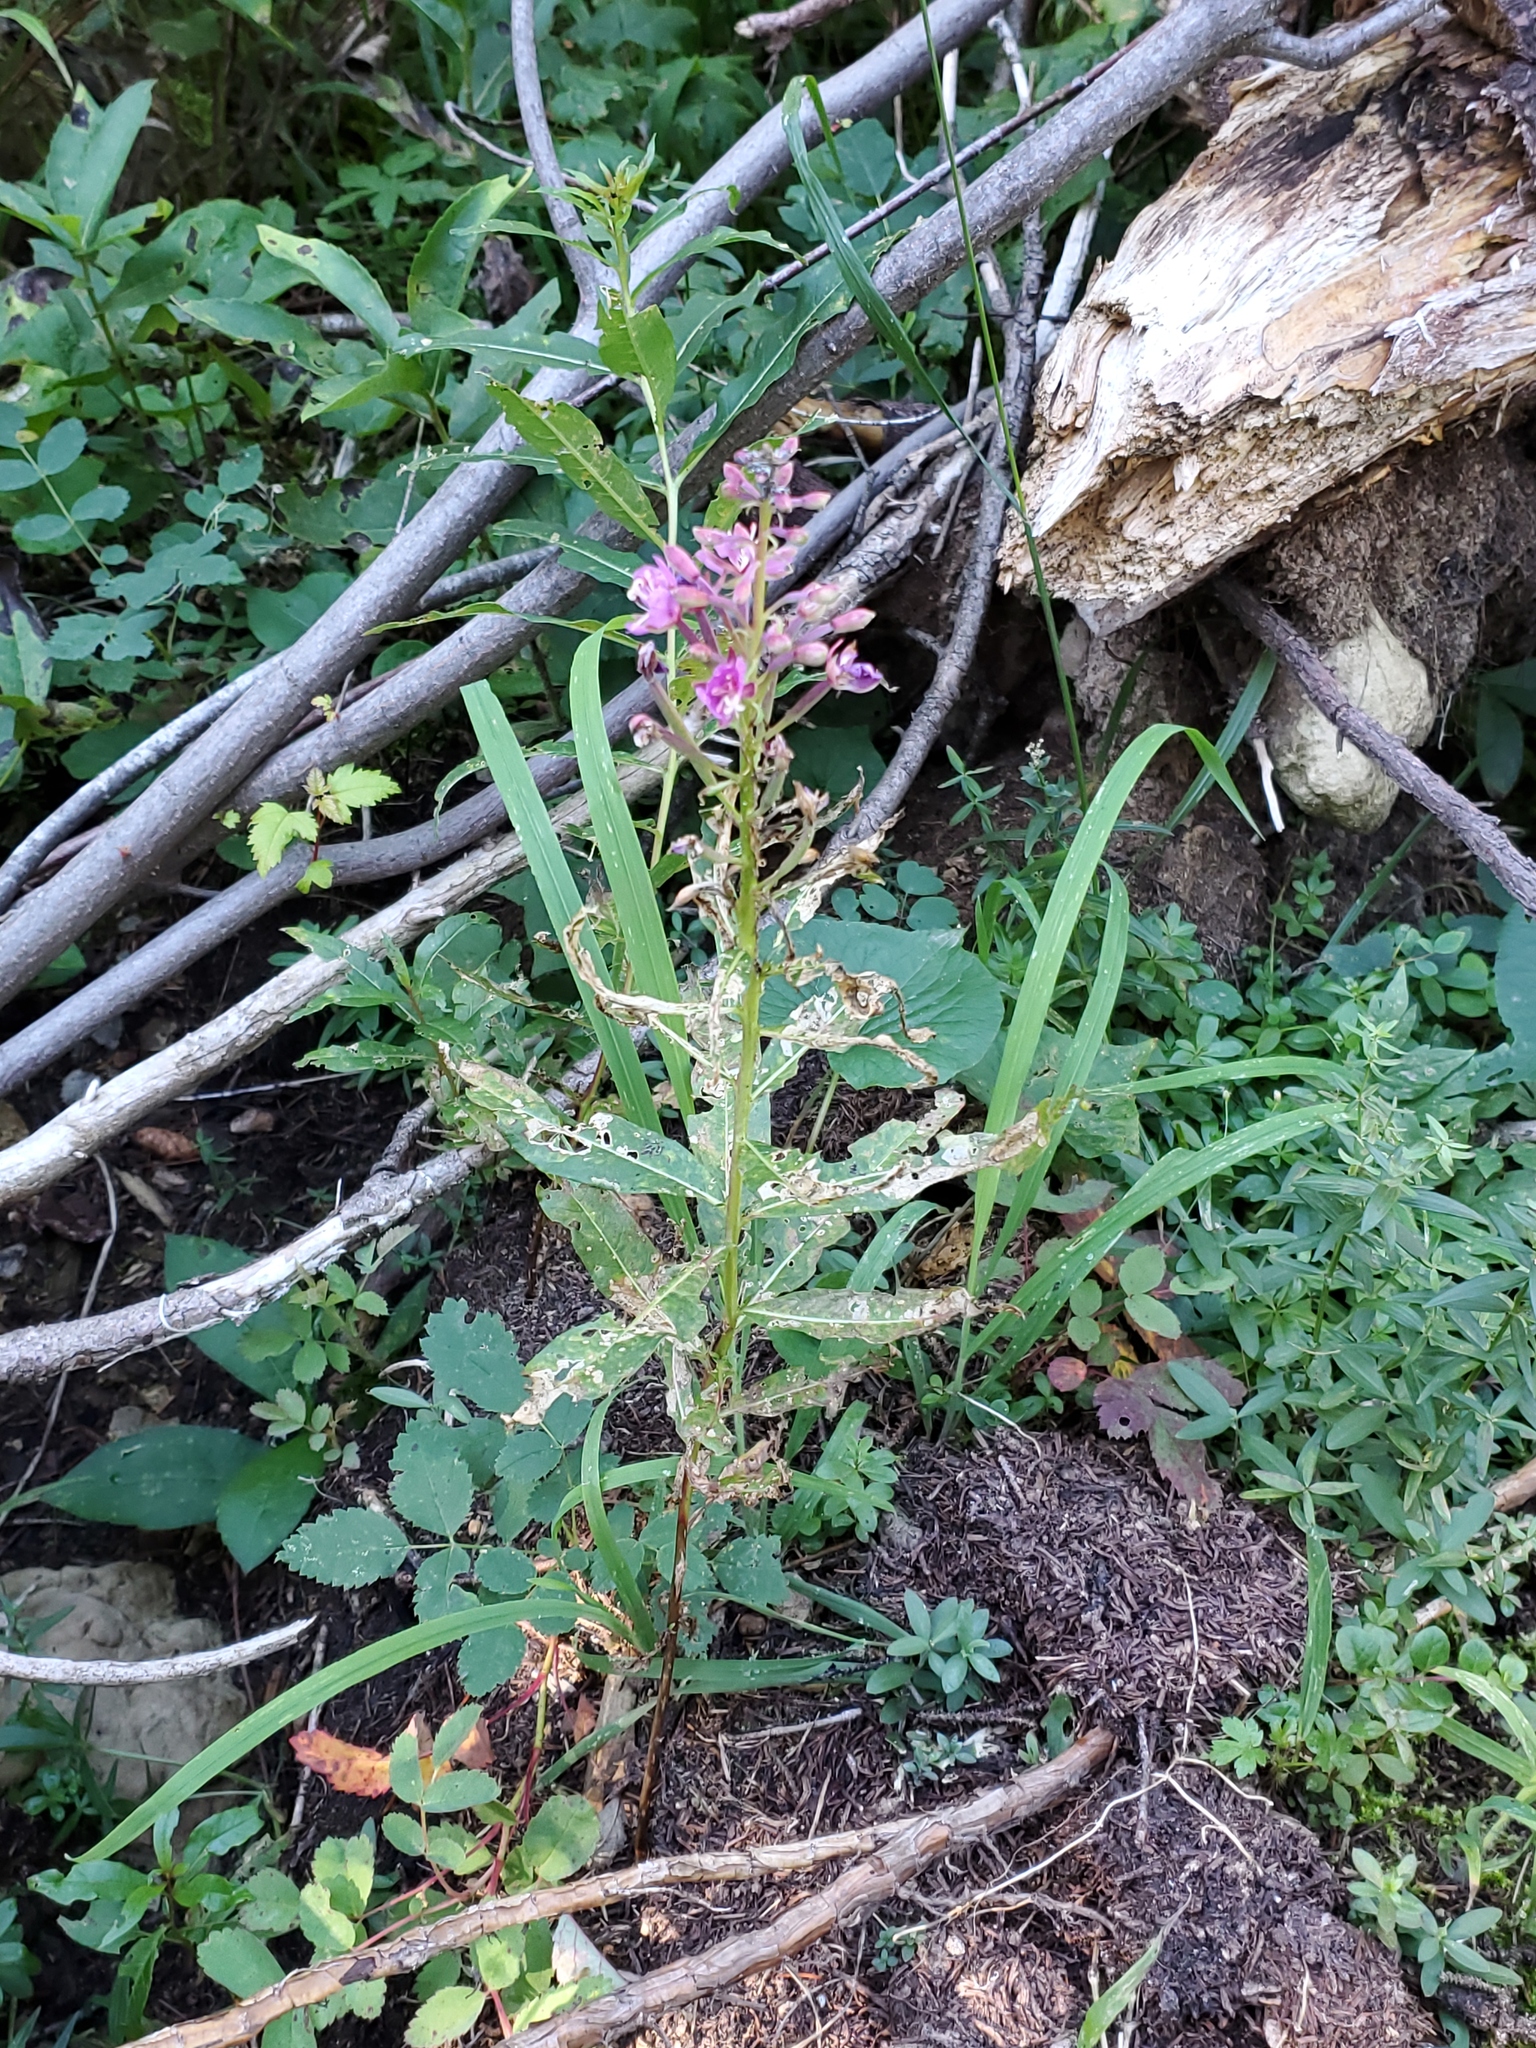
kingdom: Plantae
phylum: Tracheophyta
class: Magnoliopsida
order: Myrtales
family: Onagraceae
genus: Chamaenerion
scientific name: Chamaenerion angustifolium
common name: Fireweed
